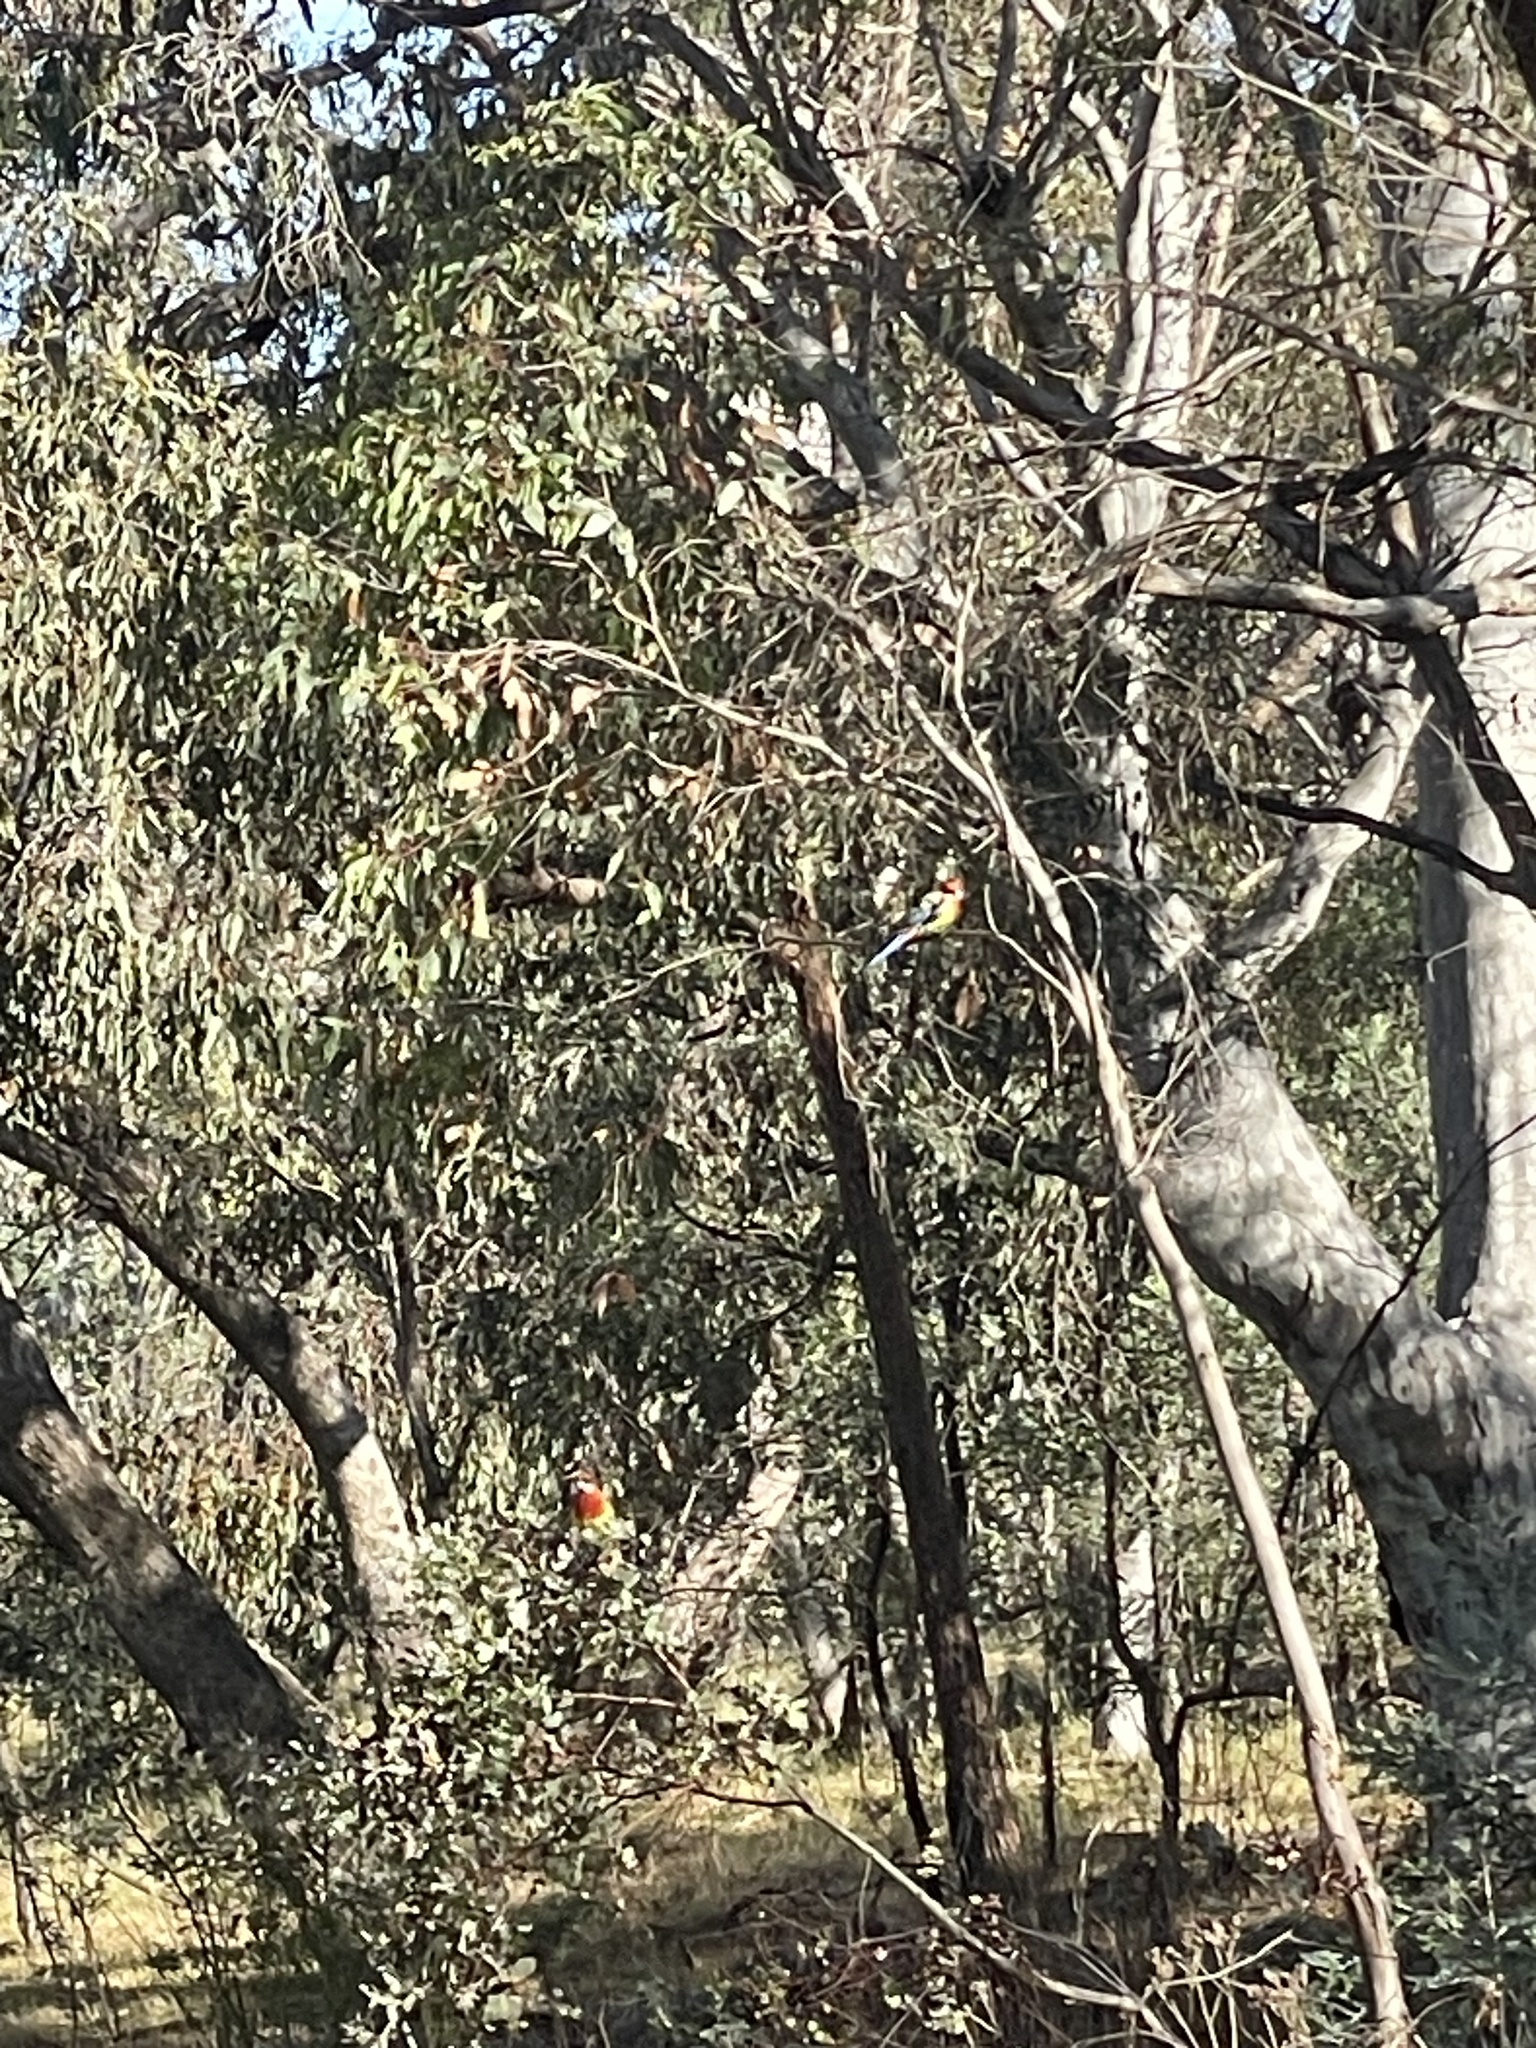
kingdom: Animalia
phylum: Chordata
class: Aves
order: Psittaciformes
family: Psittacidae
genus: Platycercus
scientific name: Platycercus eximius
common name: Eastern rosella
